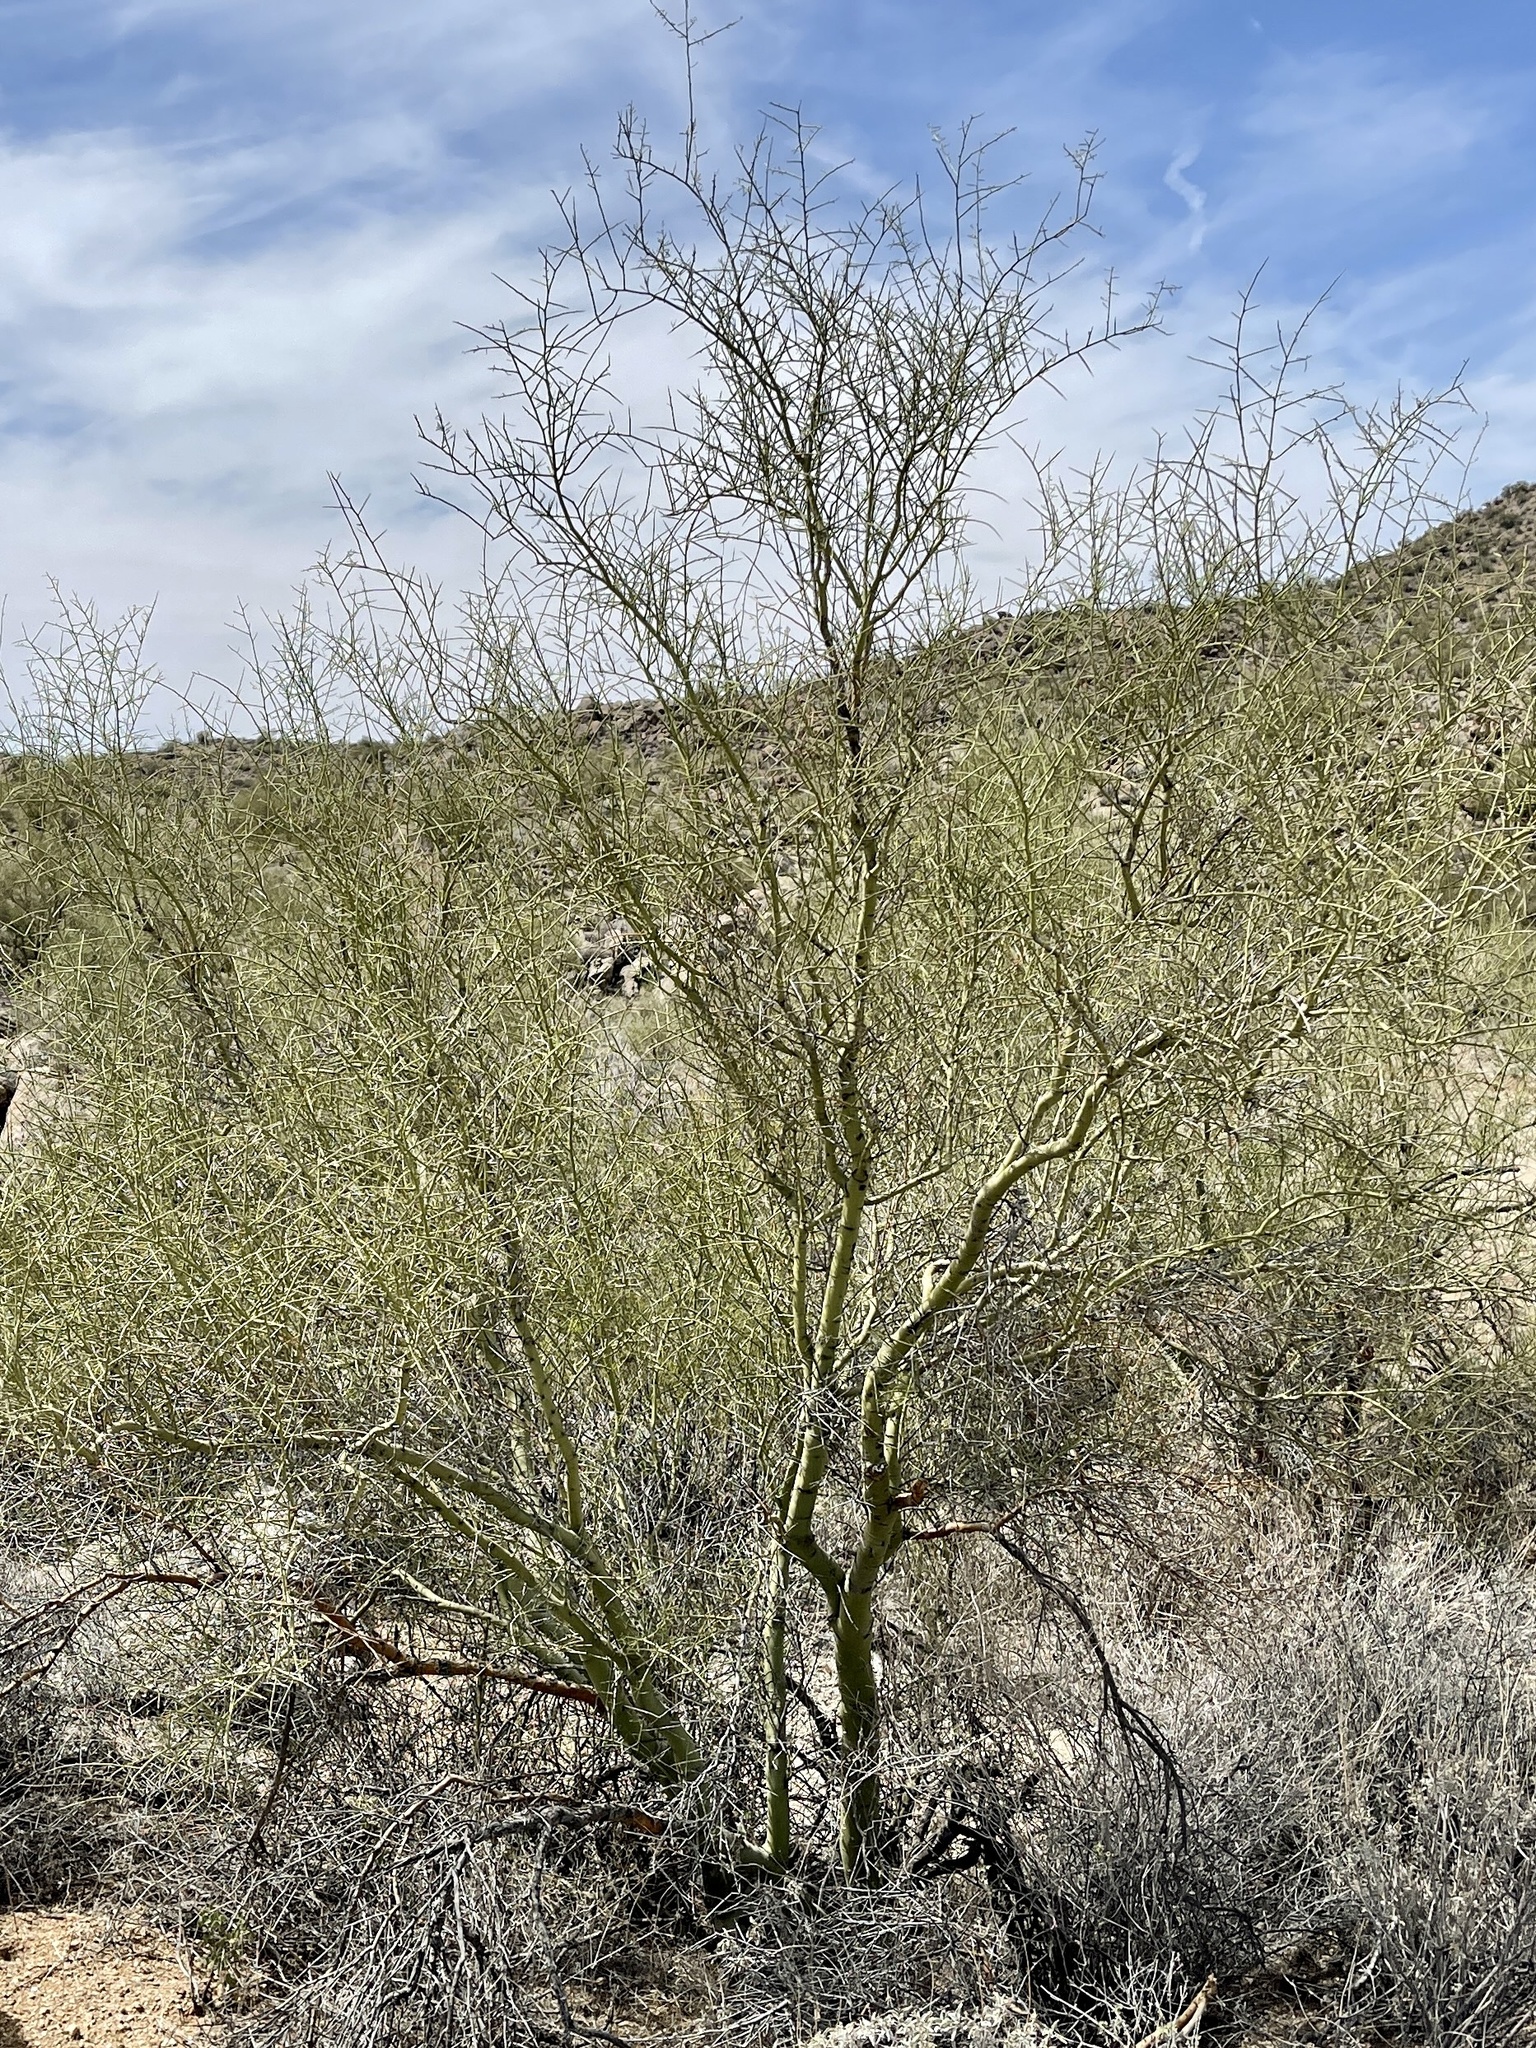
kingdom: Plantae
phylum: Tracheophyta
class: Magnoliopsida
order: Fabales
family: Fabaceae
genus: Parkinsonia
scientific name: Parkinsonia microphylla
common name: Yellow paloverde
